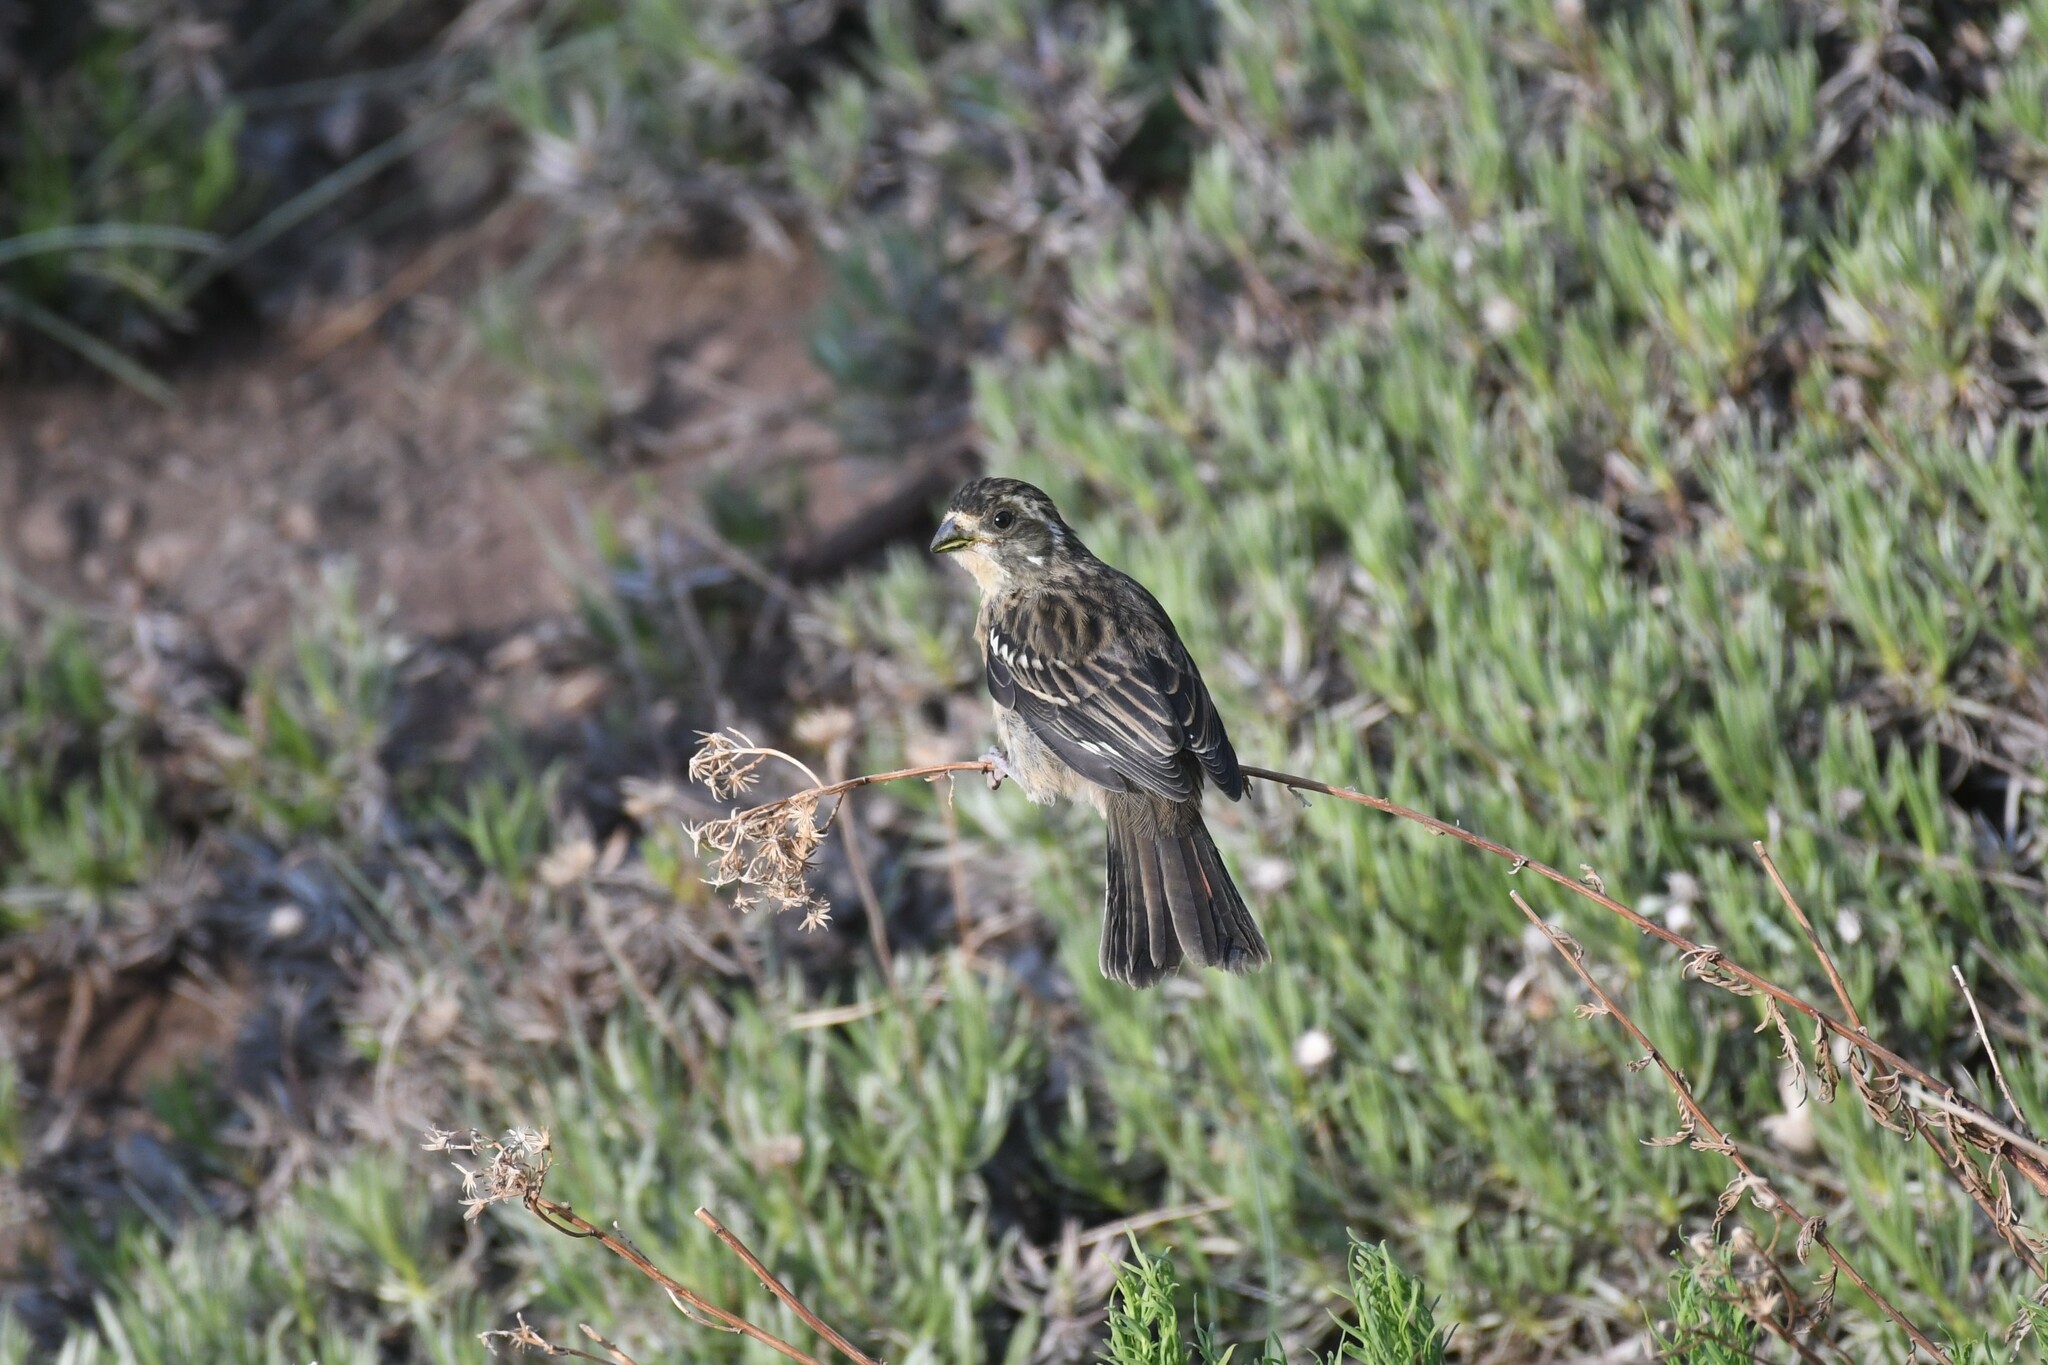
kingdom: Animalia
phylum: Chordata
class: Aves
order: Passeriformes
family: Cotingidae
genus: Phytotoma
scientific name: Phytotoma rara
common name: Rufous-tailed plantcutter
